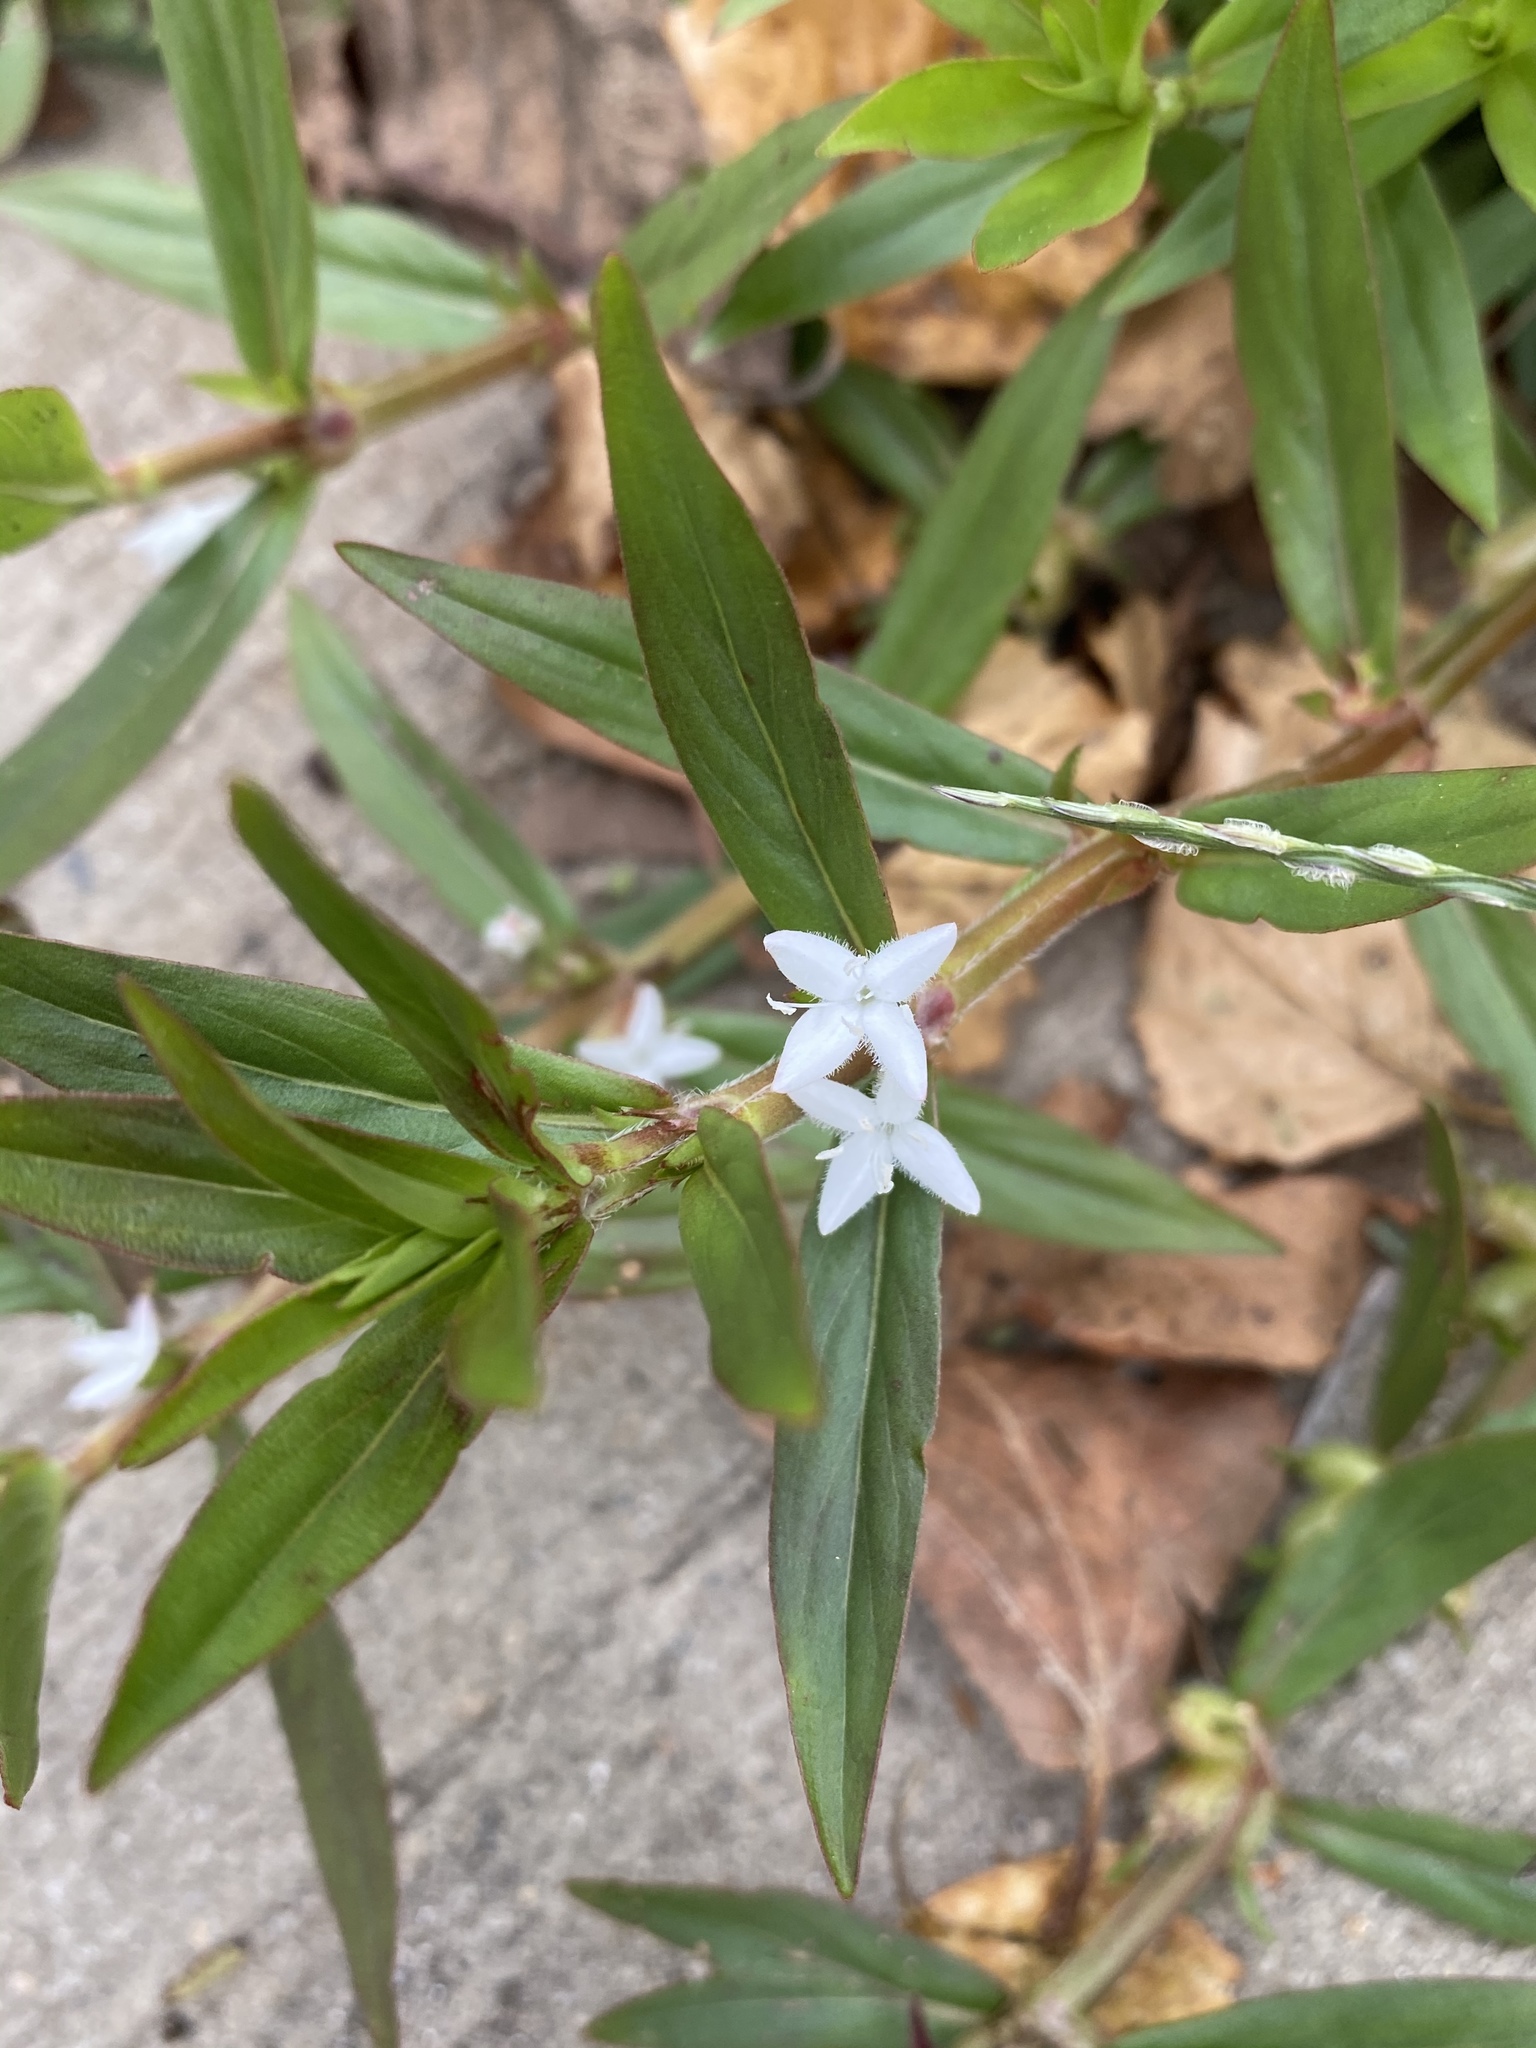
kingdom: Plantae
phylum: Tracheophyta
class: Magnoliopsida
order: Gentianales
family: Rubiaceae
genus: Diodia
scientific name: Diodia virginiana
